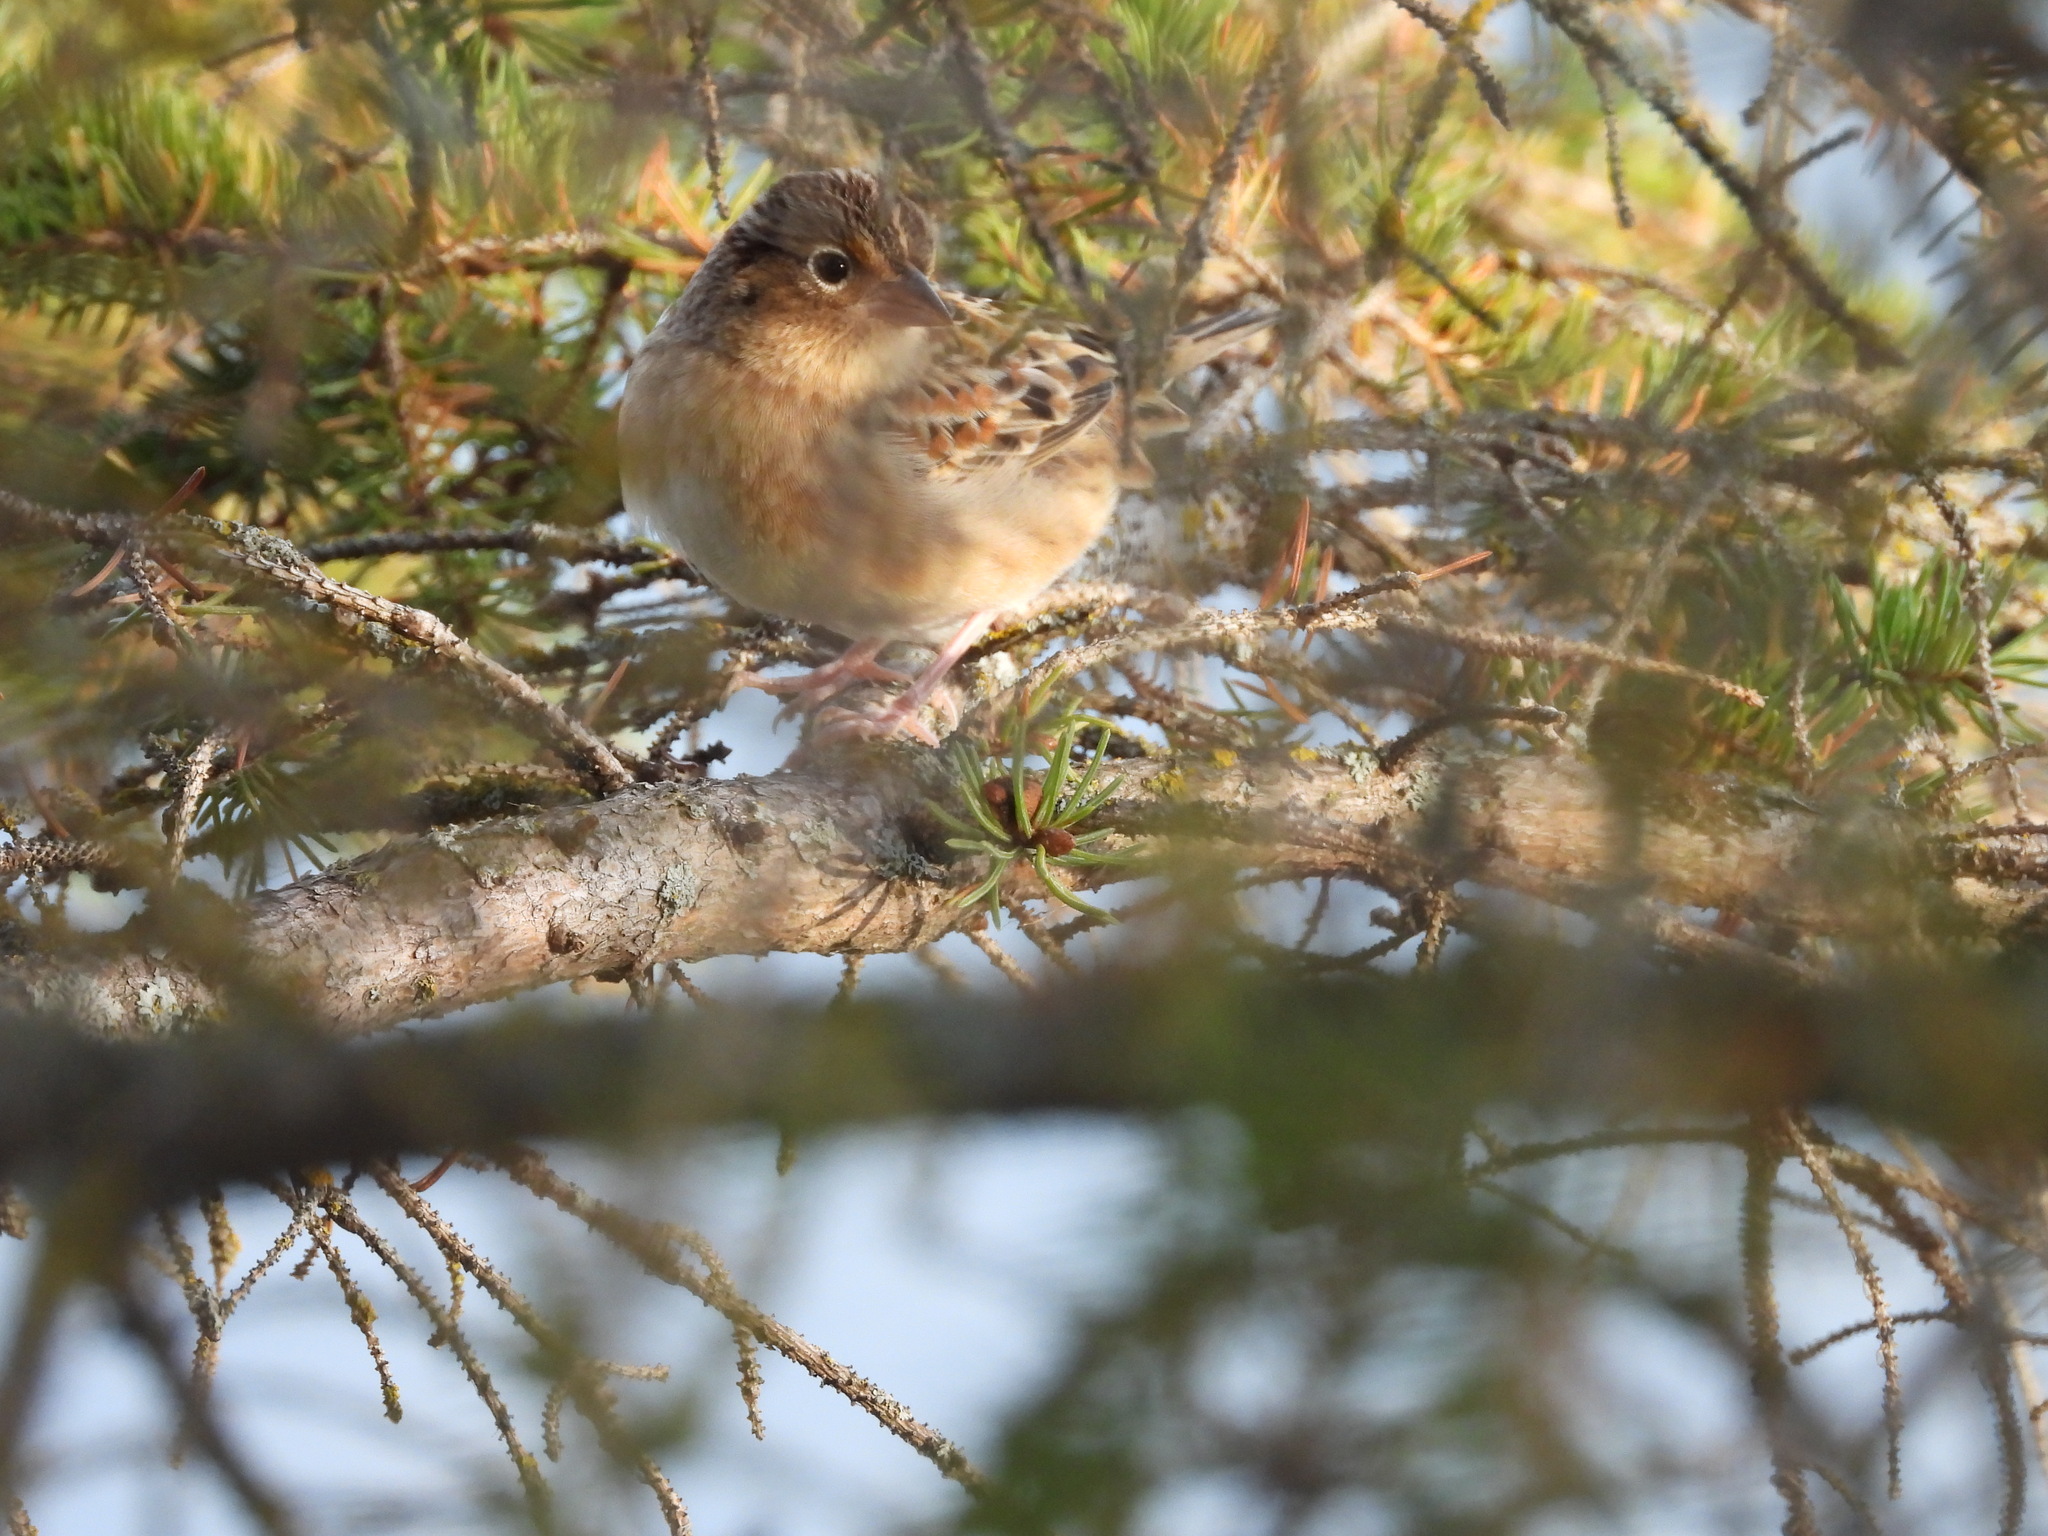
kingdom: Animalia
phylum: Chordata
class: Aves
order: Passeriformes
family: Passerellidae
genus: Ammodramus
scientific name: Ammodramus savannarum
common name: Grasshopper sparrow
